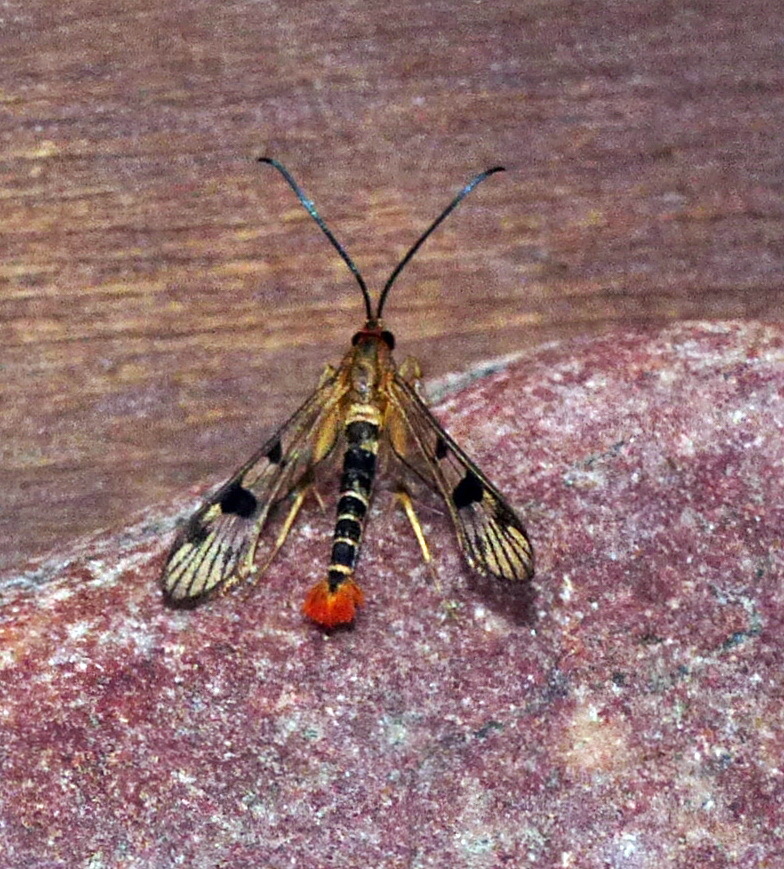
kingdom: Animalia
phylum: Arthropoda
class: Insecta
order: Lepidoptera
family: Sesiidae
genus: Synanthedon
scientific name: Synanthedon acerni
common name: Maple callus borer moth
